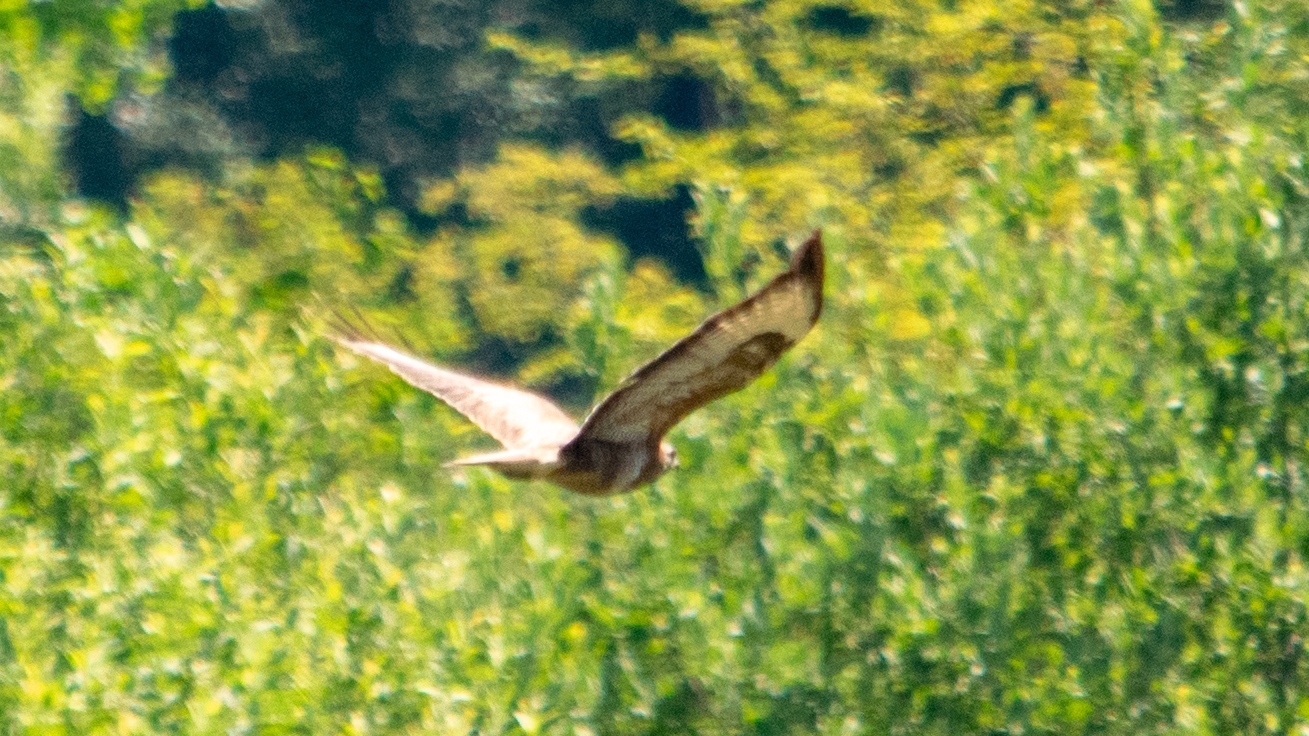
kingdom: Animalia
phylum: Chordata
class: Aves
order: Accipitriformes
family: Accipitridae
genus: Buteo
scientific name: Buteo buteo
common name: Common buzzard
